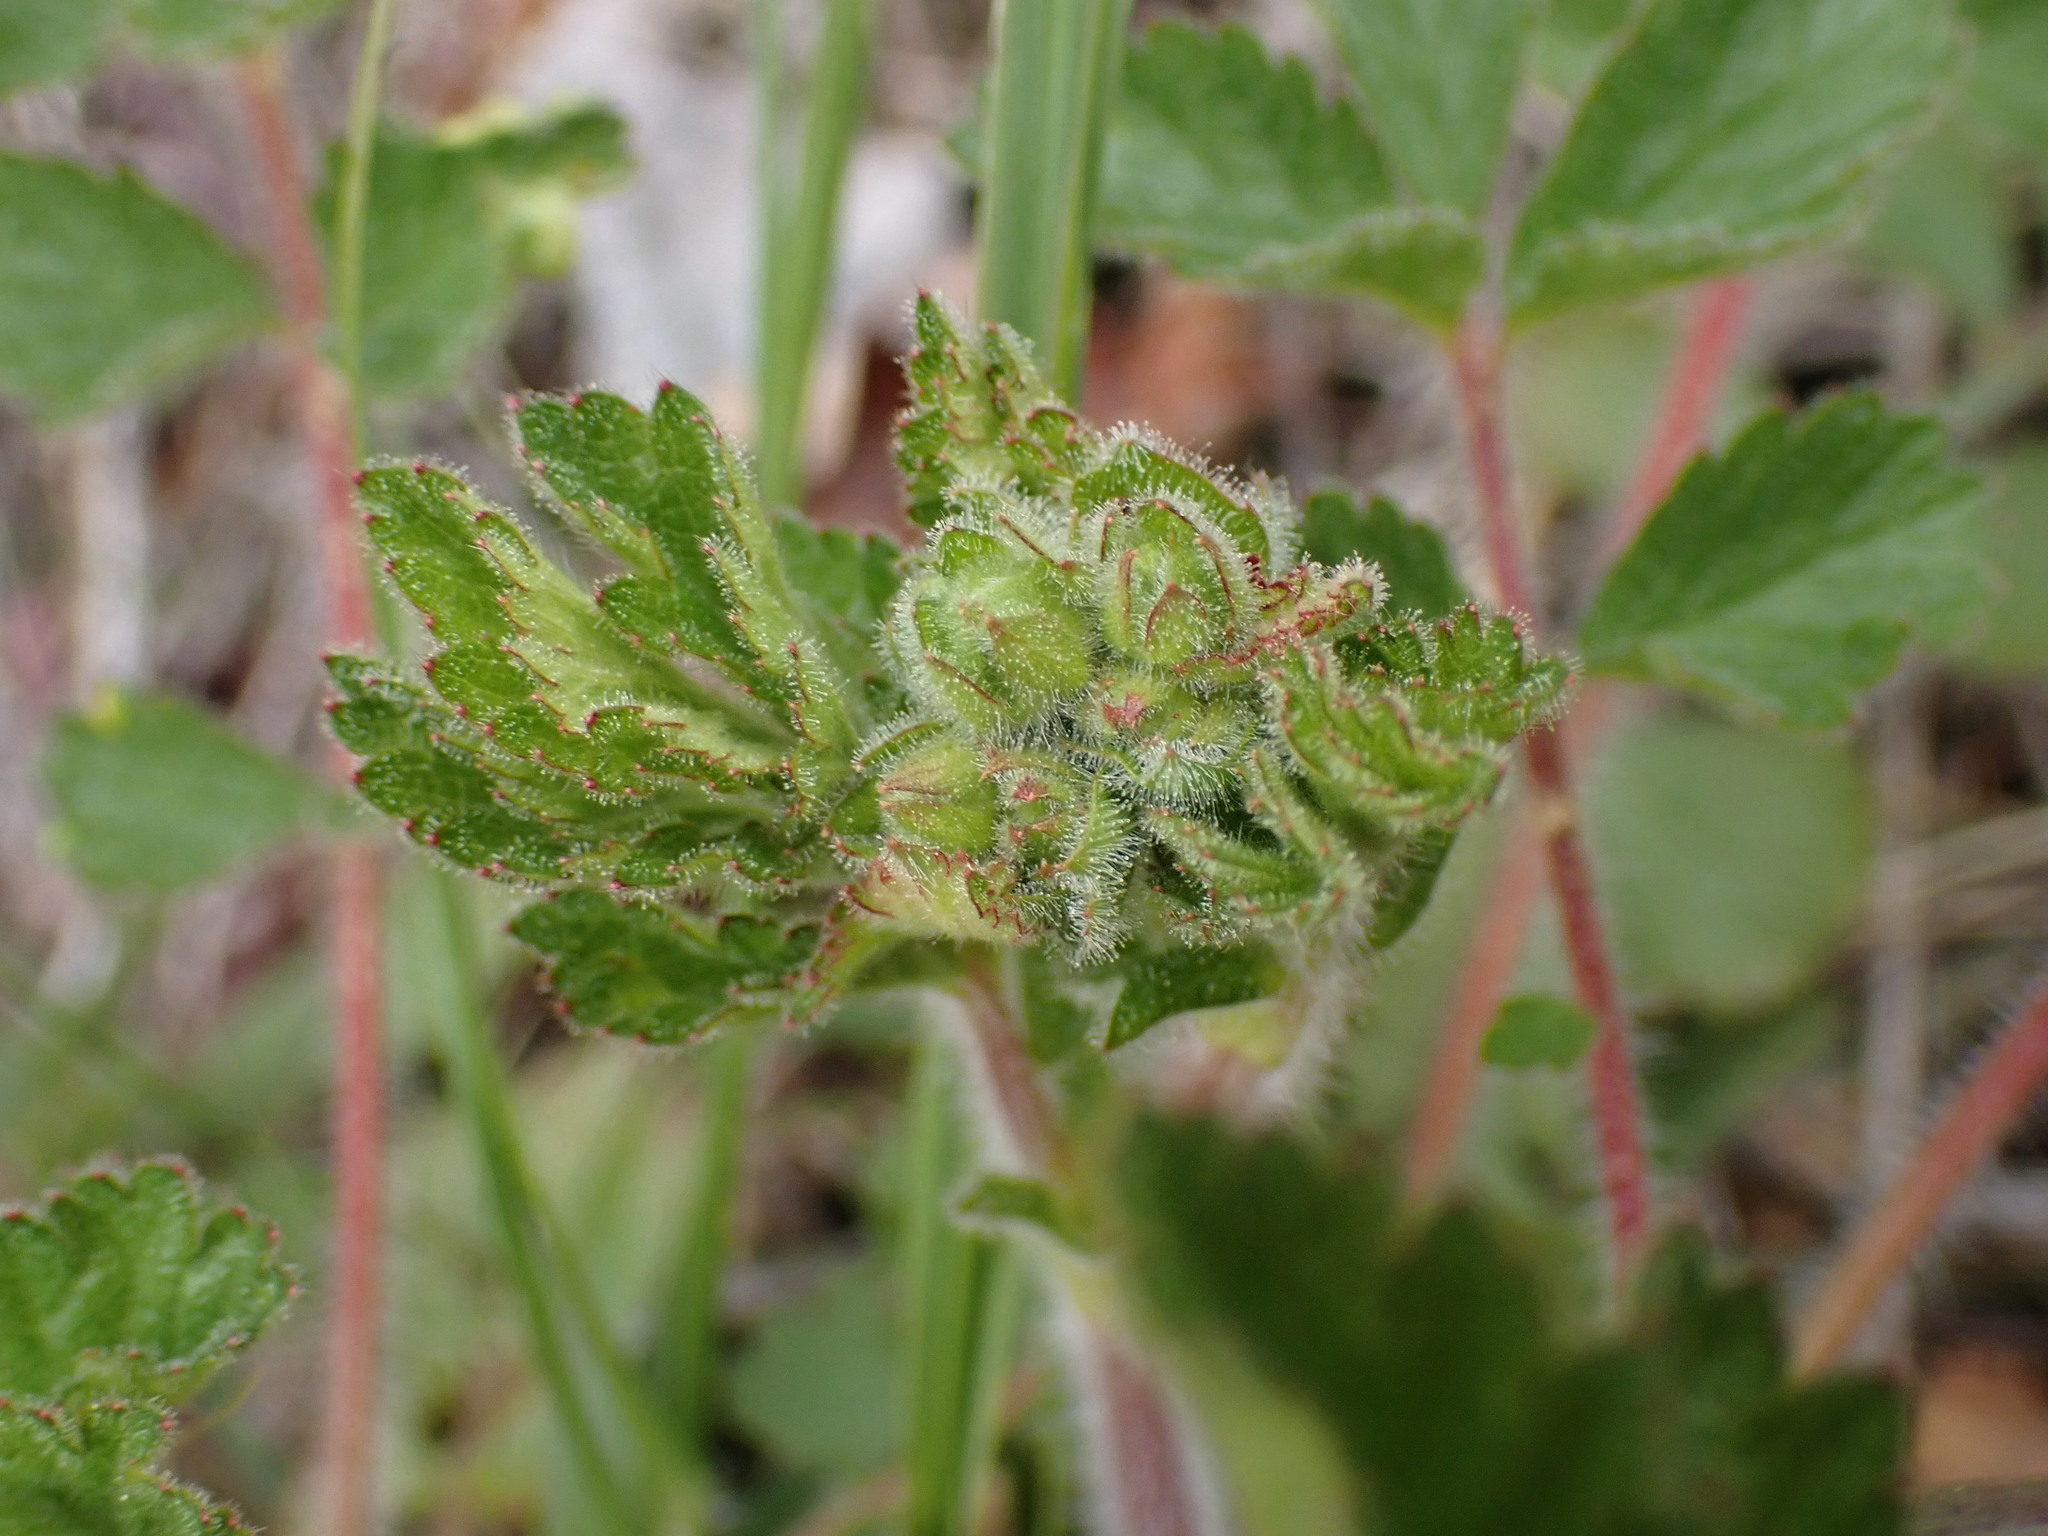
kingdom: Plantae
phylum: Tracheophyta
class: Magnoliopsida
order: Rosales
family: Rosaceae
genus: Drymocallis
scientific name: Drymocallis glandulosa
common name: Sticky cinquefoil
